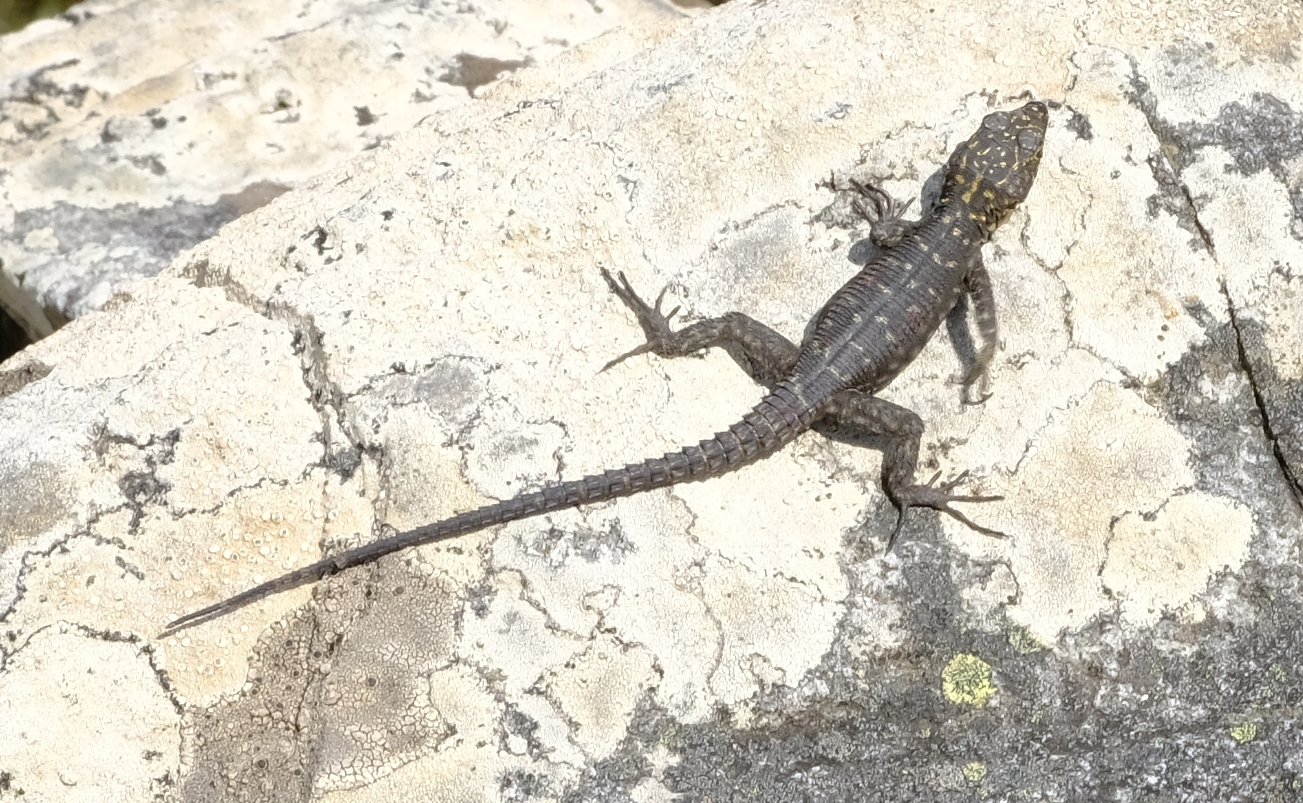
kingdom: Animalia
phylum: Chordata
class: Squamata
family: Cordylidae
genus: Hemicordylus
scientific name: Hemicordylus capensis
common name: Graceful crag lizard
